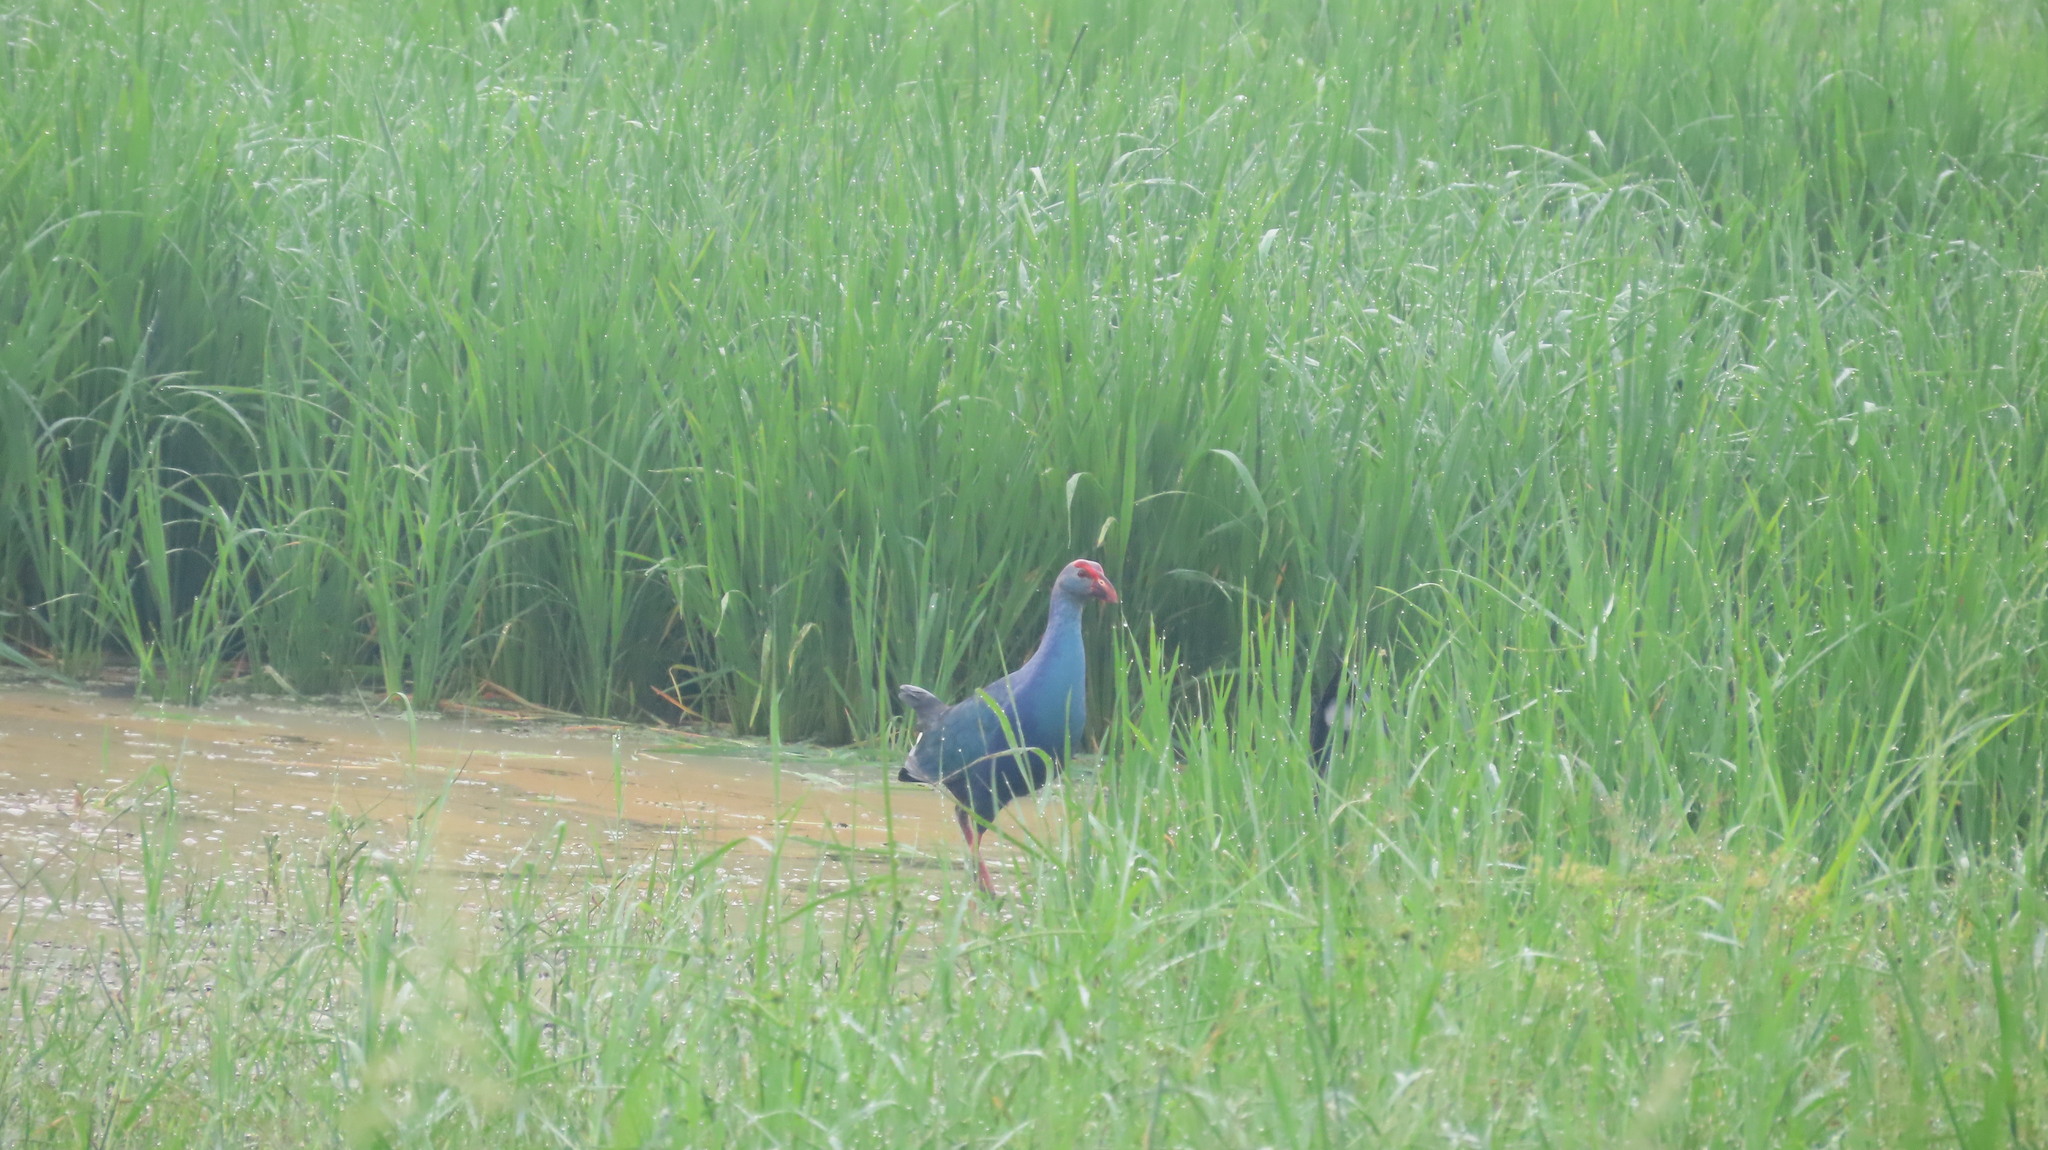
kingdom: Animalia
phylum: Chordata
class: Aves
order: Gruiformes
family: Rallidae
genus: Porphyrio
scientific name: Porphyrio porphyrio
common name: Purple swamphen
